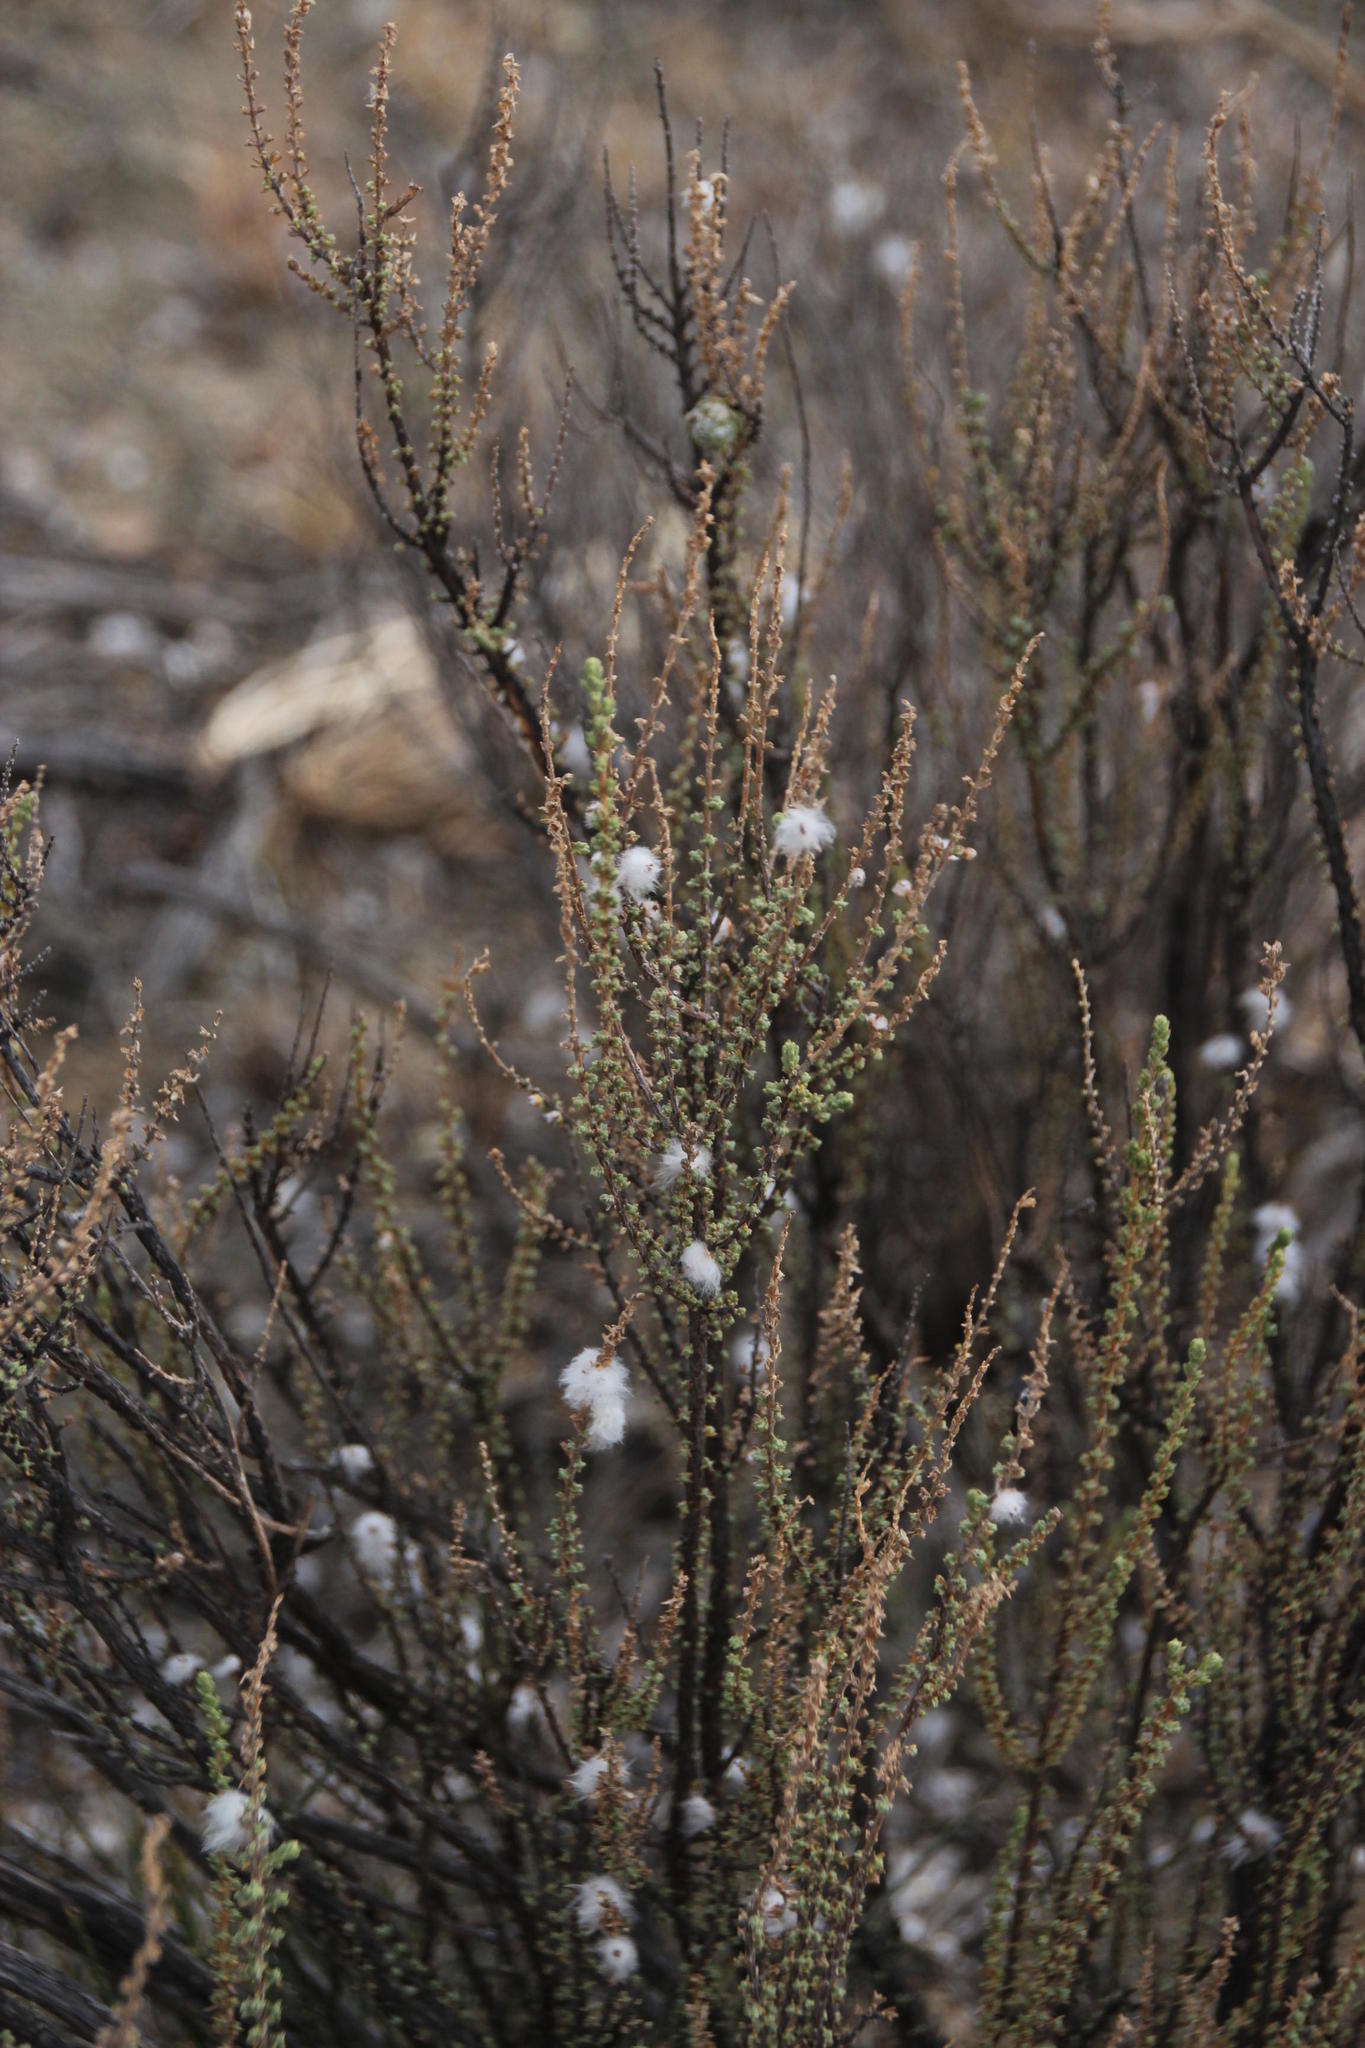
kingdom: Plantae
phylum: Tracheophyta
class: Magnoliopsida
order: Asterales
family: Asteraceae
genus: Eriocephalus
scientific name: Eriocephalus ericoides
